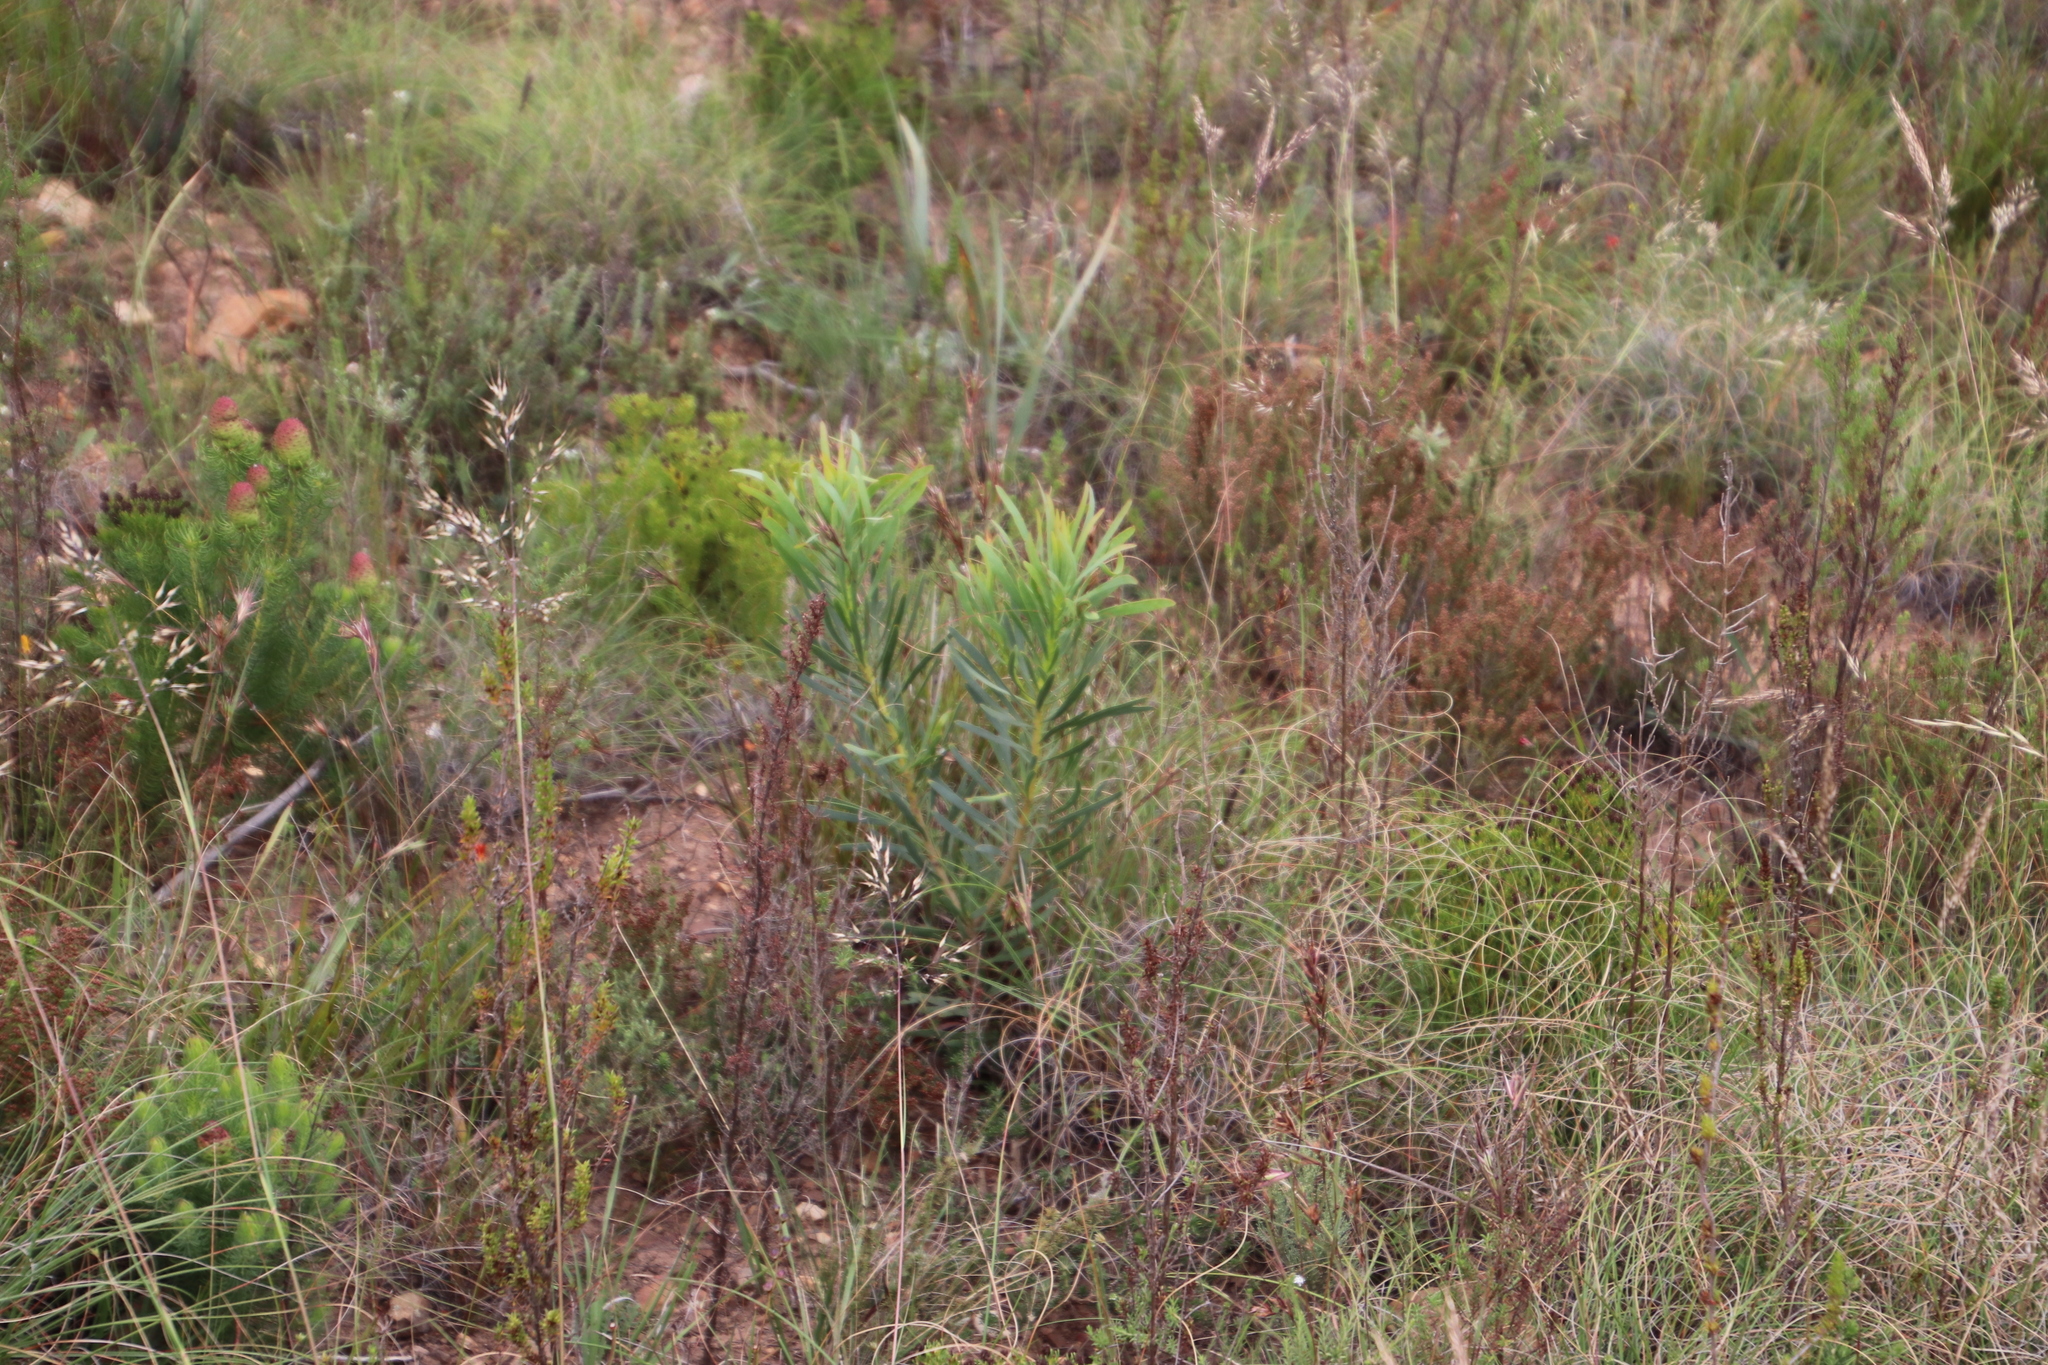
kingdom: Plantae
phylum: Tracheophyta
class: Magnoliopsida
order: Proteales
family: Proteaceae
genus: Protea
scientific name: Protea repens
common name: Sugarbush
